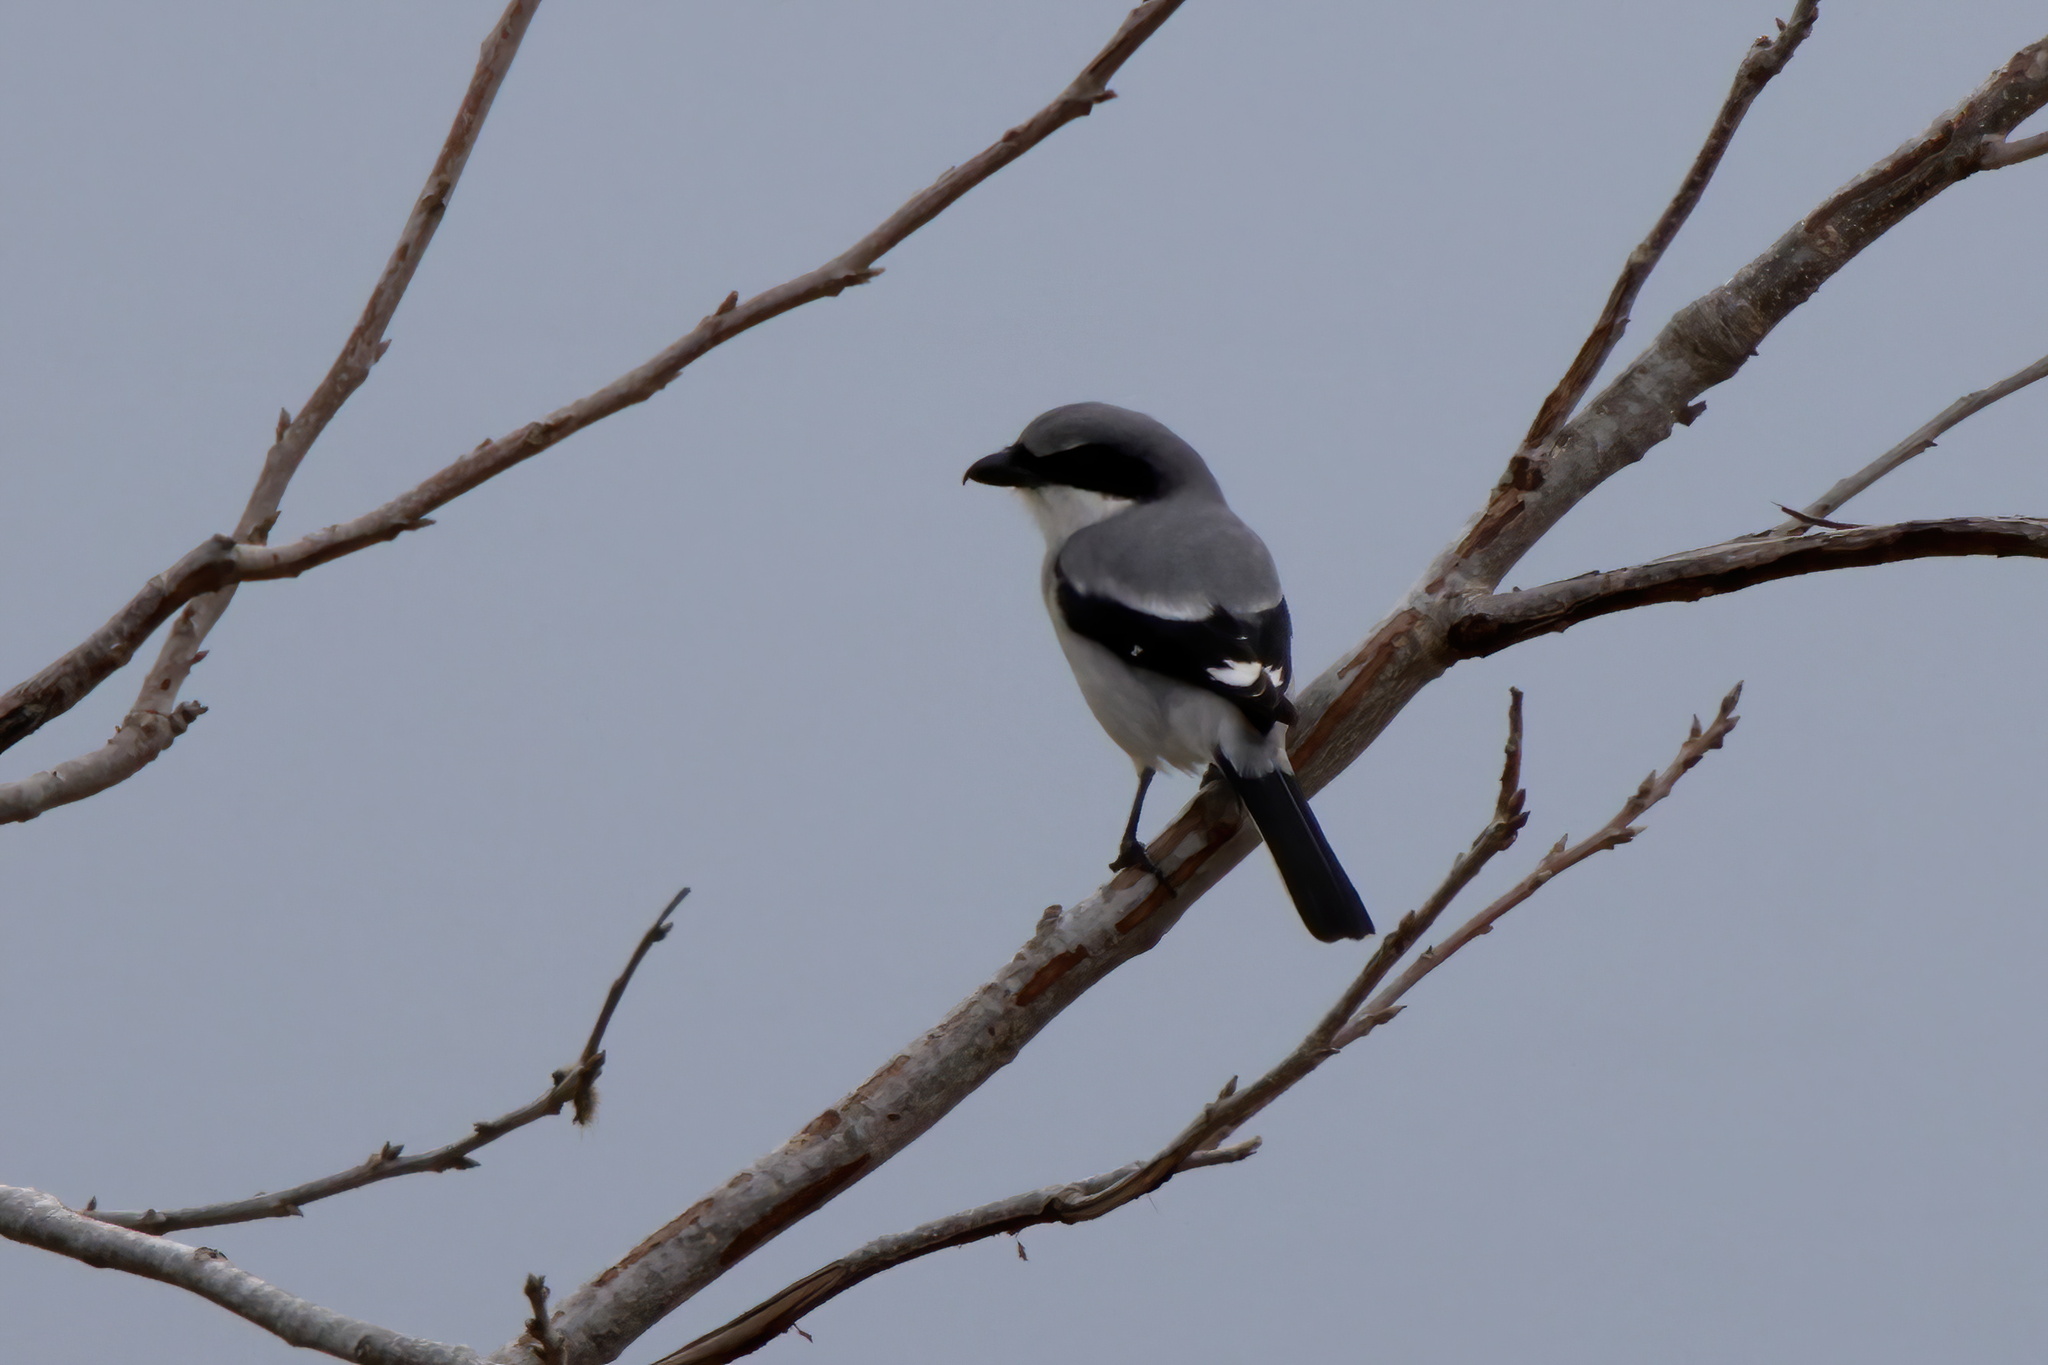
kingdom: Animalia
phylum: Chordata
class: Aves
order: Passeriformes
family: Laniidae
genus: Lanius
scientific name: Lanius ludovicianus
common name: Loggerhead shrike
